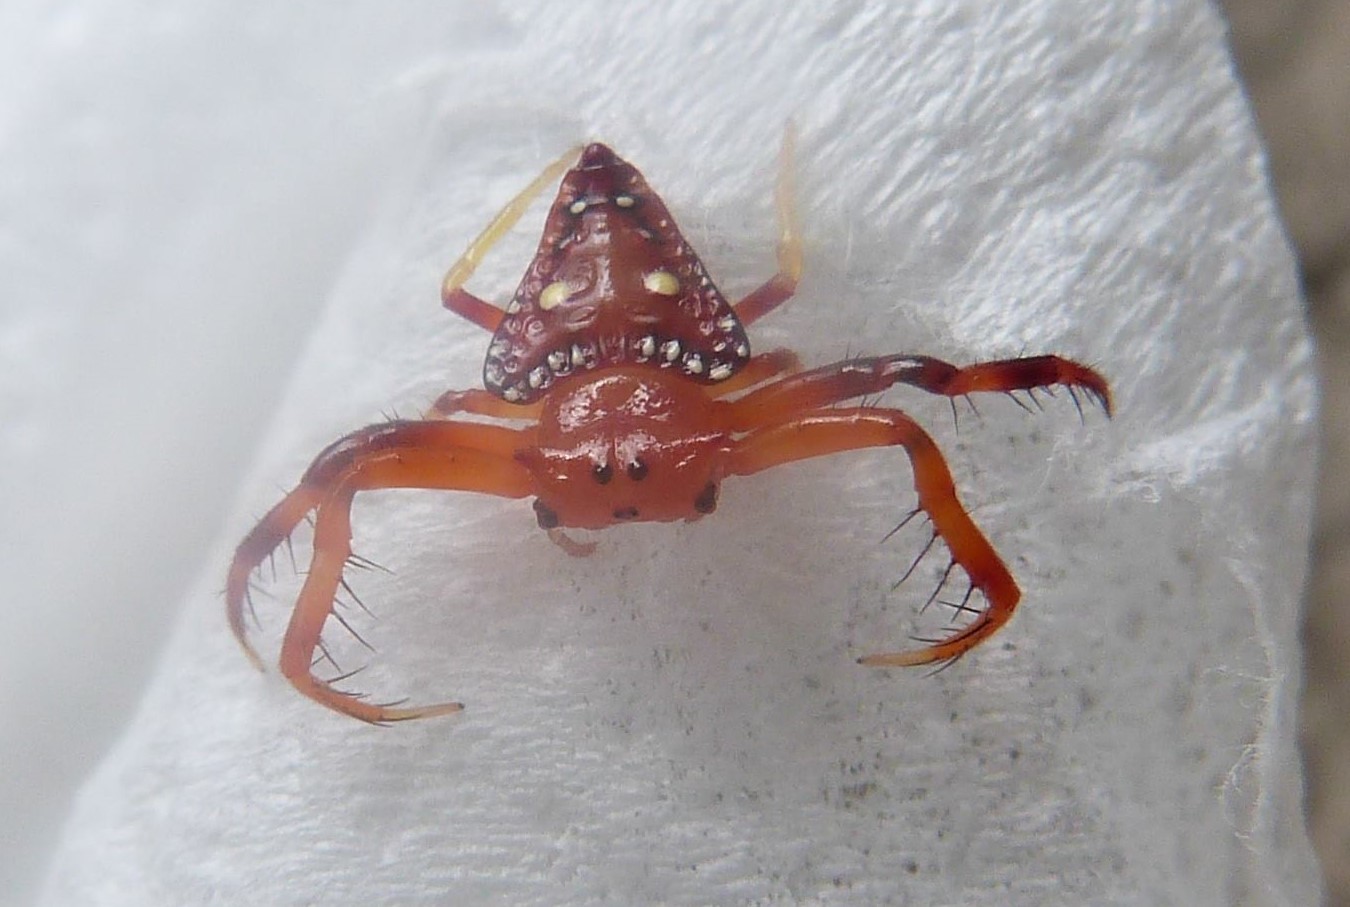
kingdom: Animalia
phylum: Arthropoda
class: Arachnida
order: Araneae
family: Arkyidae
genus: Arkys
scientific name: Arkys lancearius
